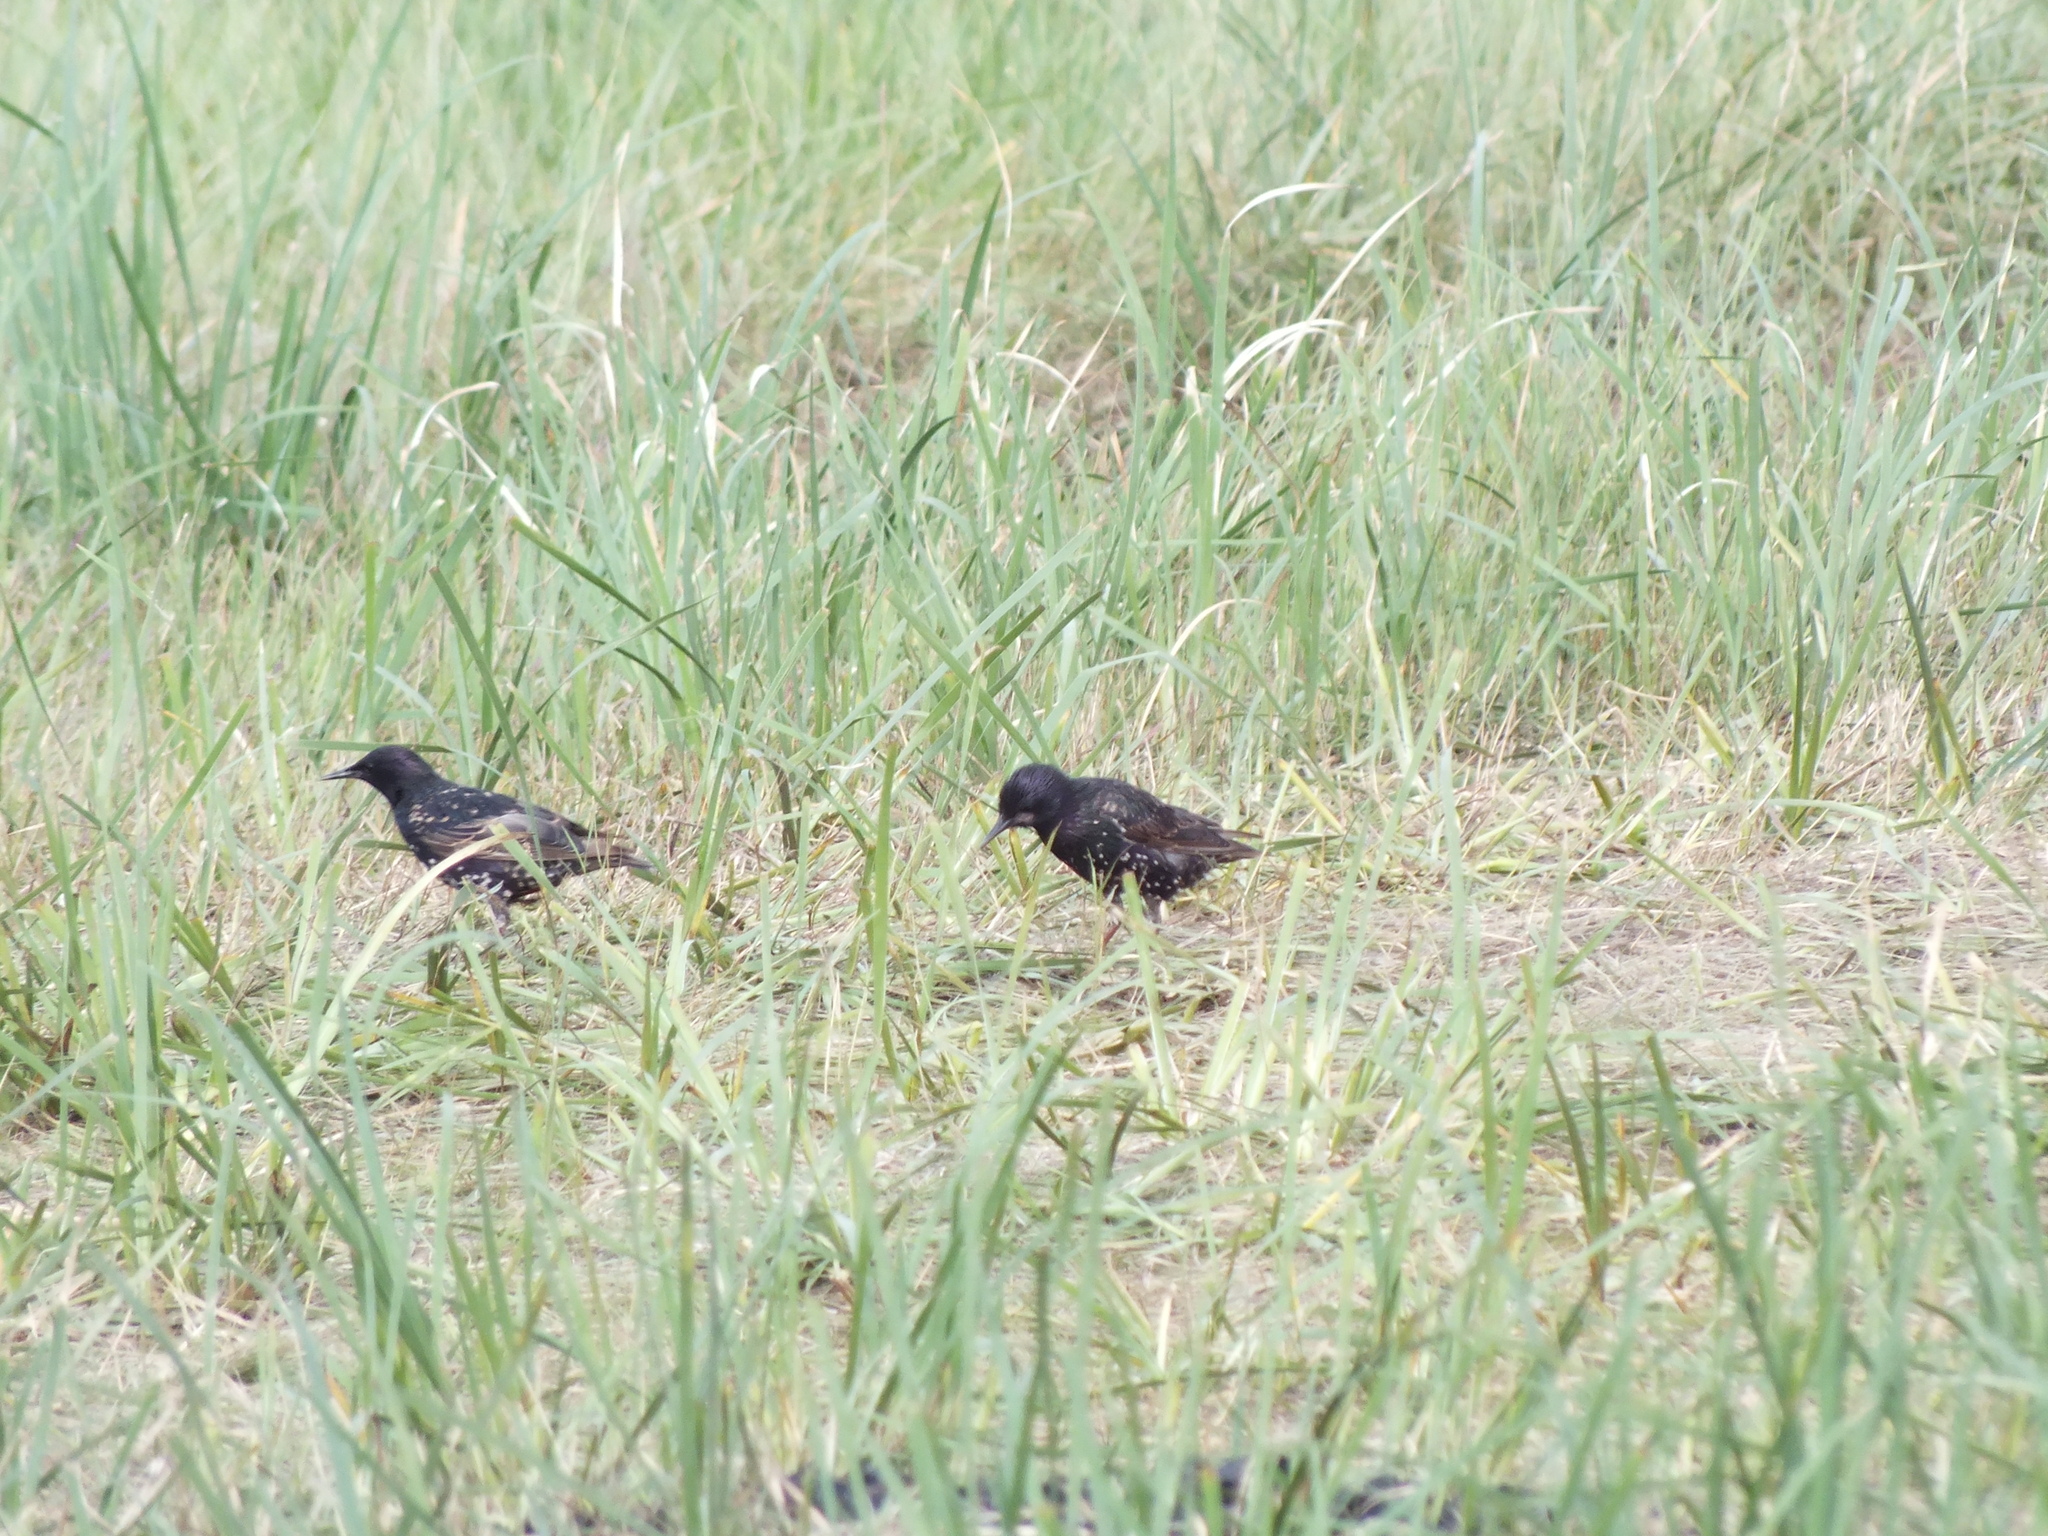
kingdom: Animalia
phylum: Chordata
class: Aves
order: Passeriformes
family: Sturnidae
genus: Sturnus
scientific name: Sturnus vulgaris
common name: Common starling
